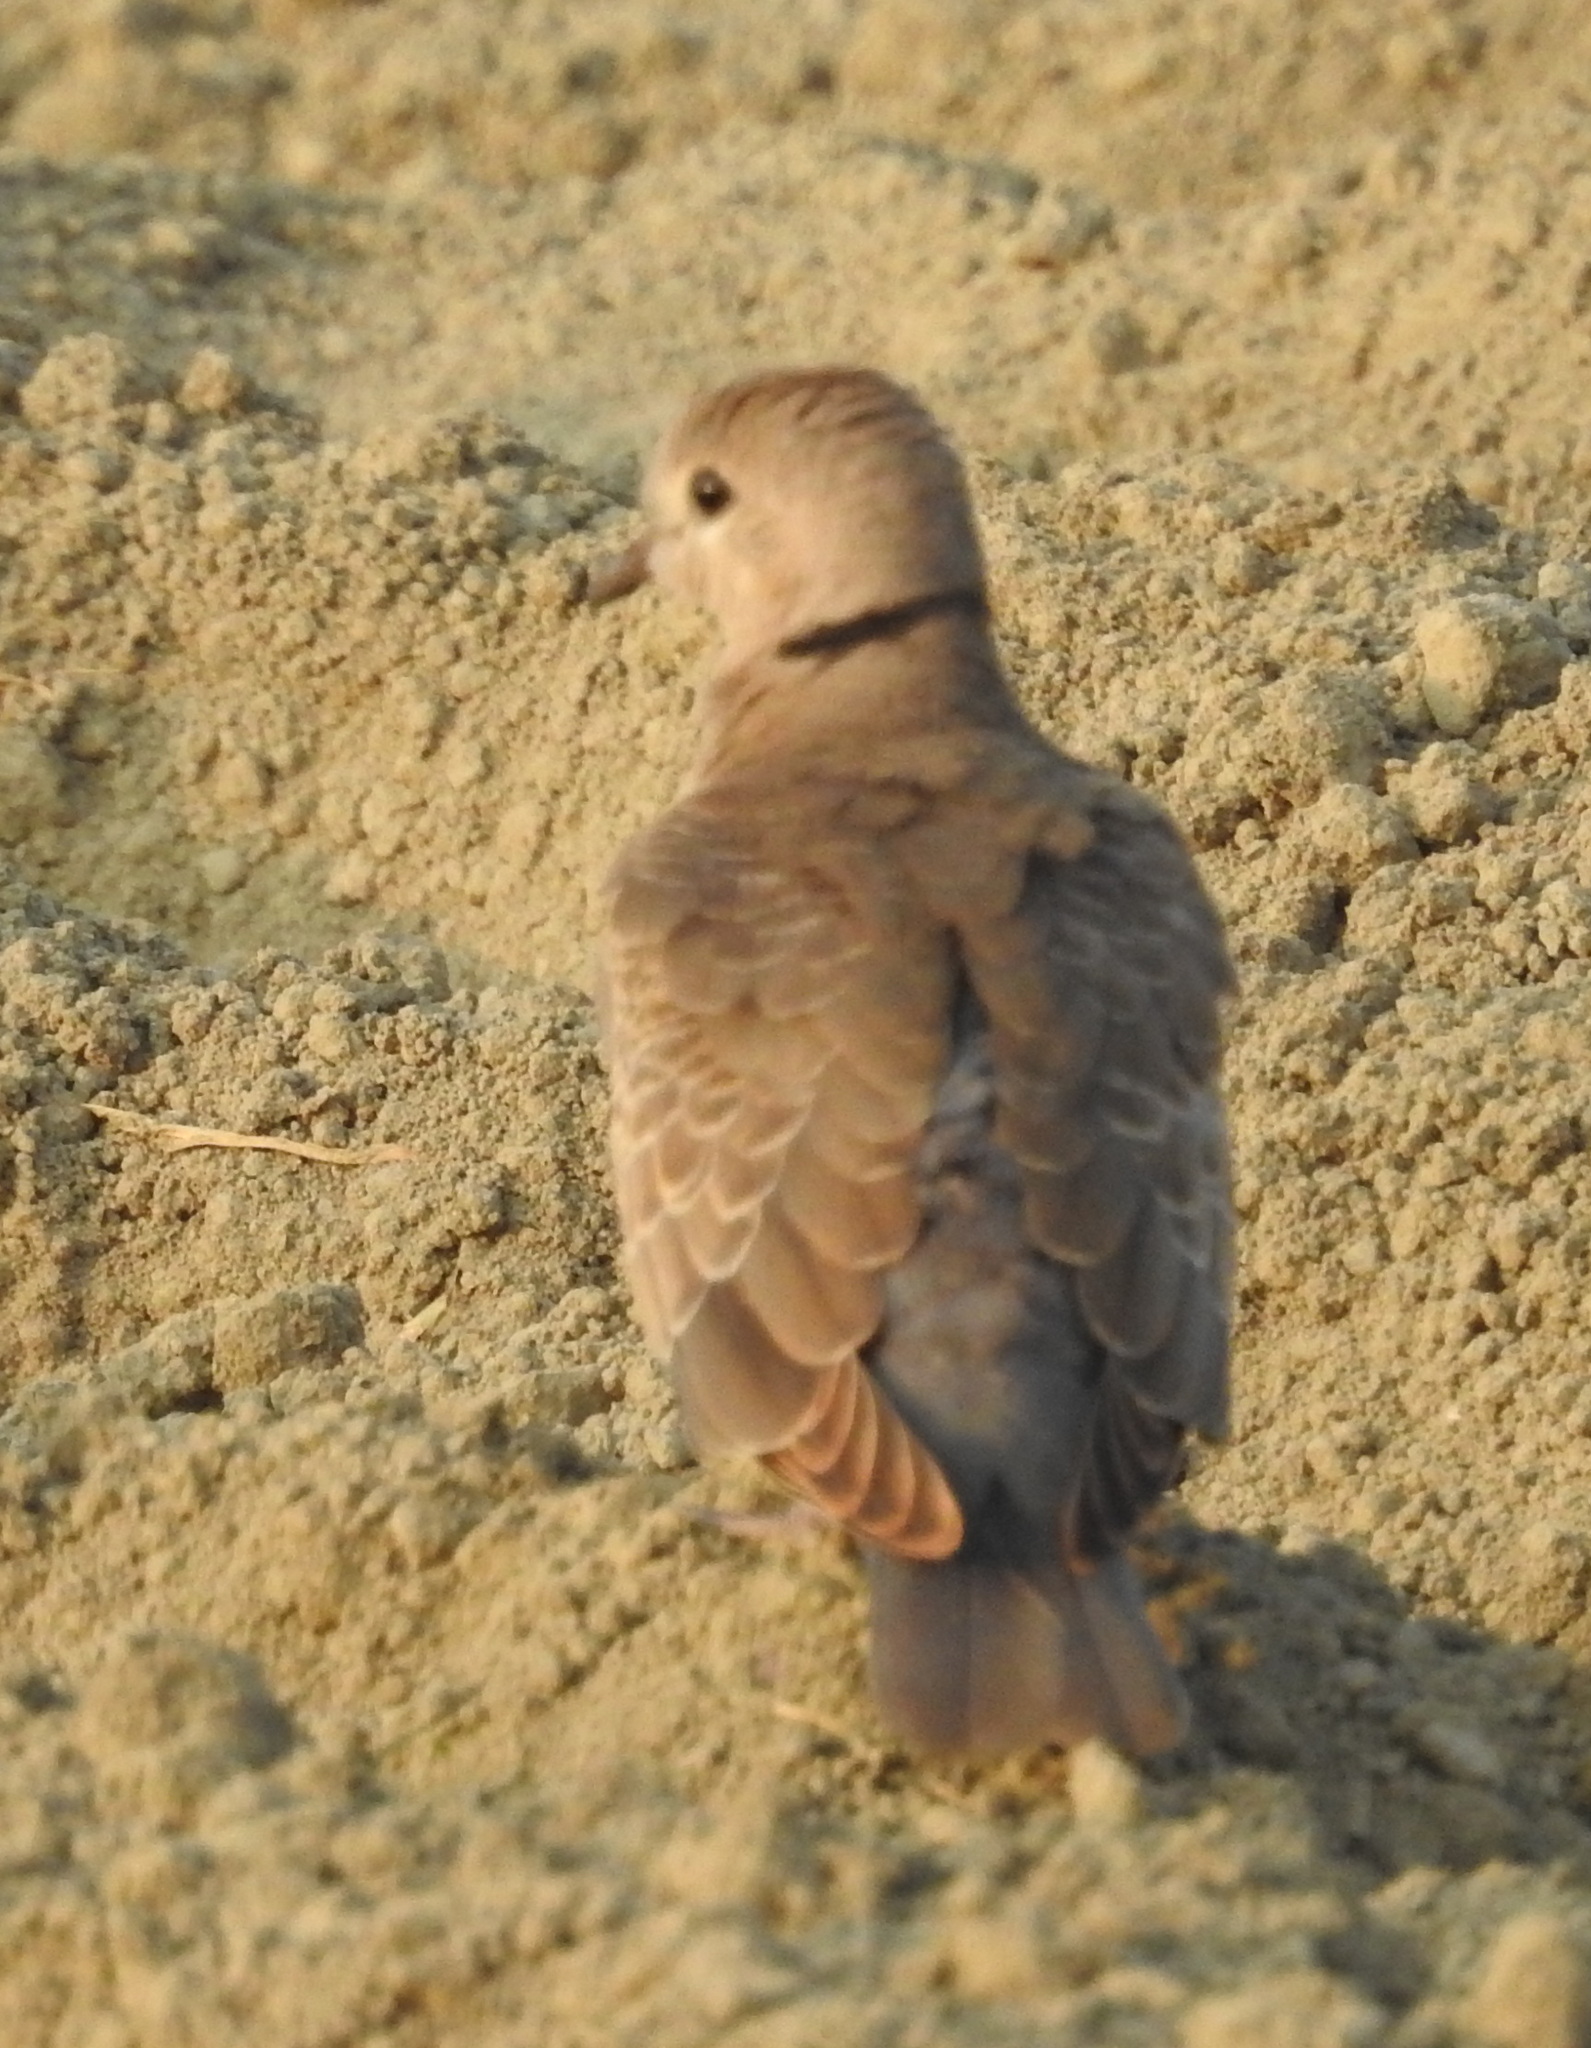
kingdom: Animalia
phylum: Chordata
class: Aves
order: Columbiformes
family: Columbidae
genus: Streptopelia
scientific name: Streptopelia tranquebarica
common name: Red turtle dove
